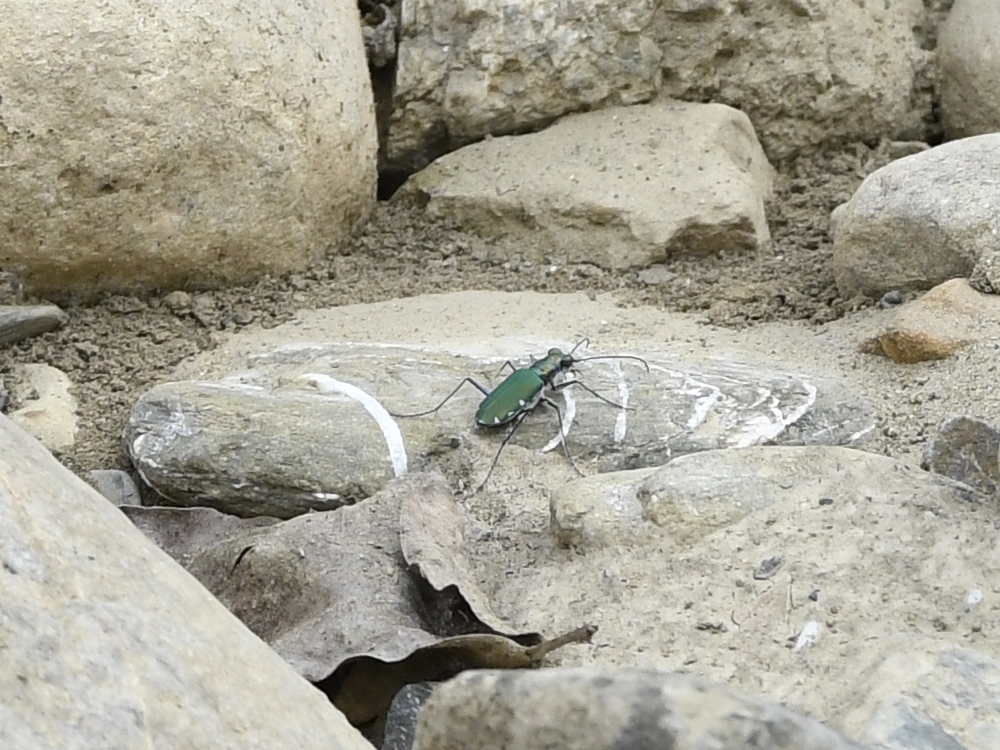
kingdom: Animalia
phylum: Arthropoda
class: Insecta
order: Coleoptera
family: Carabidae
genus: Cicindela
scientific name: Cicindela funerea
